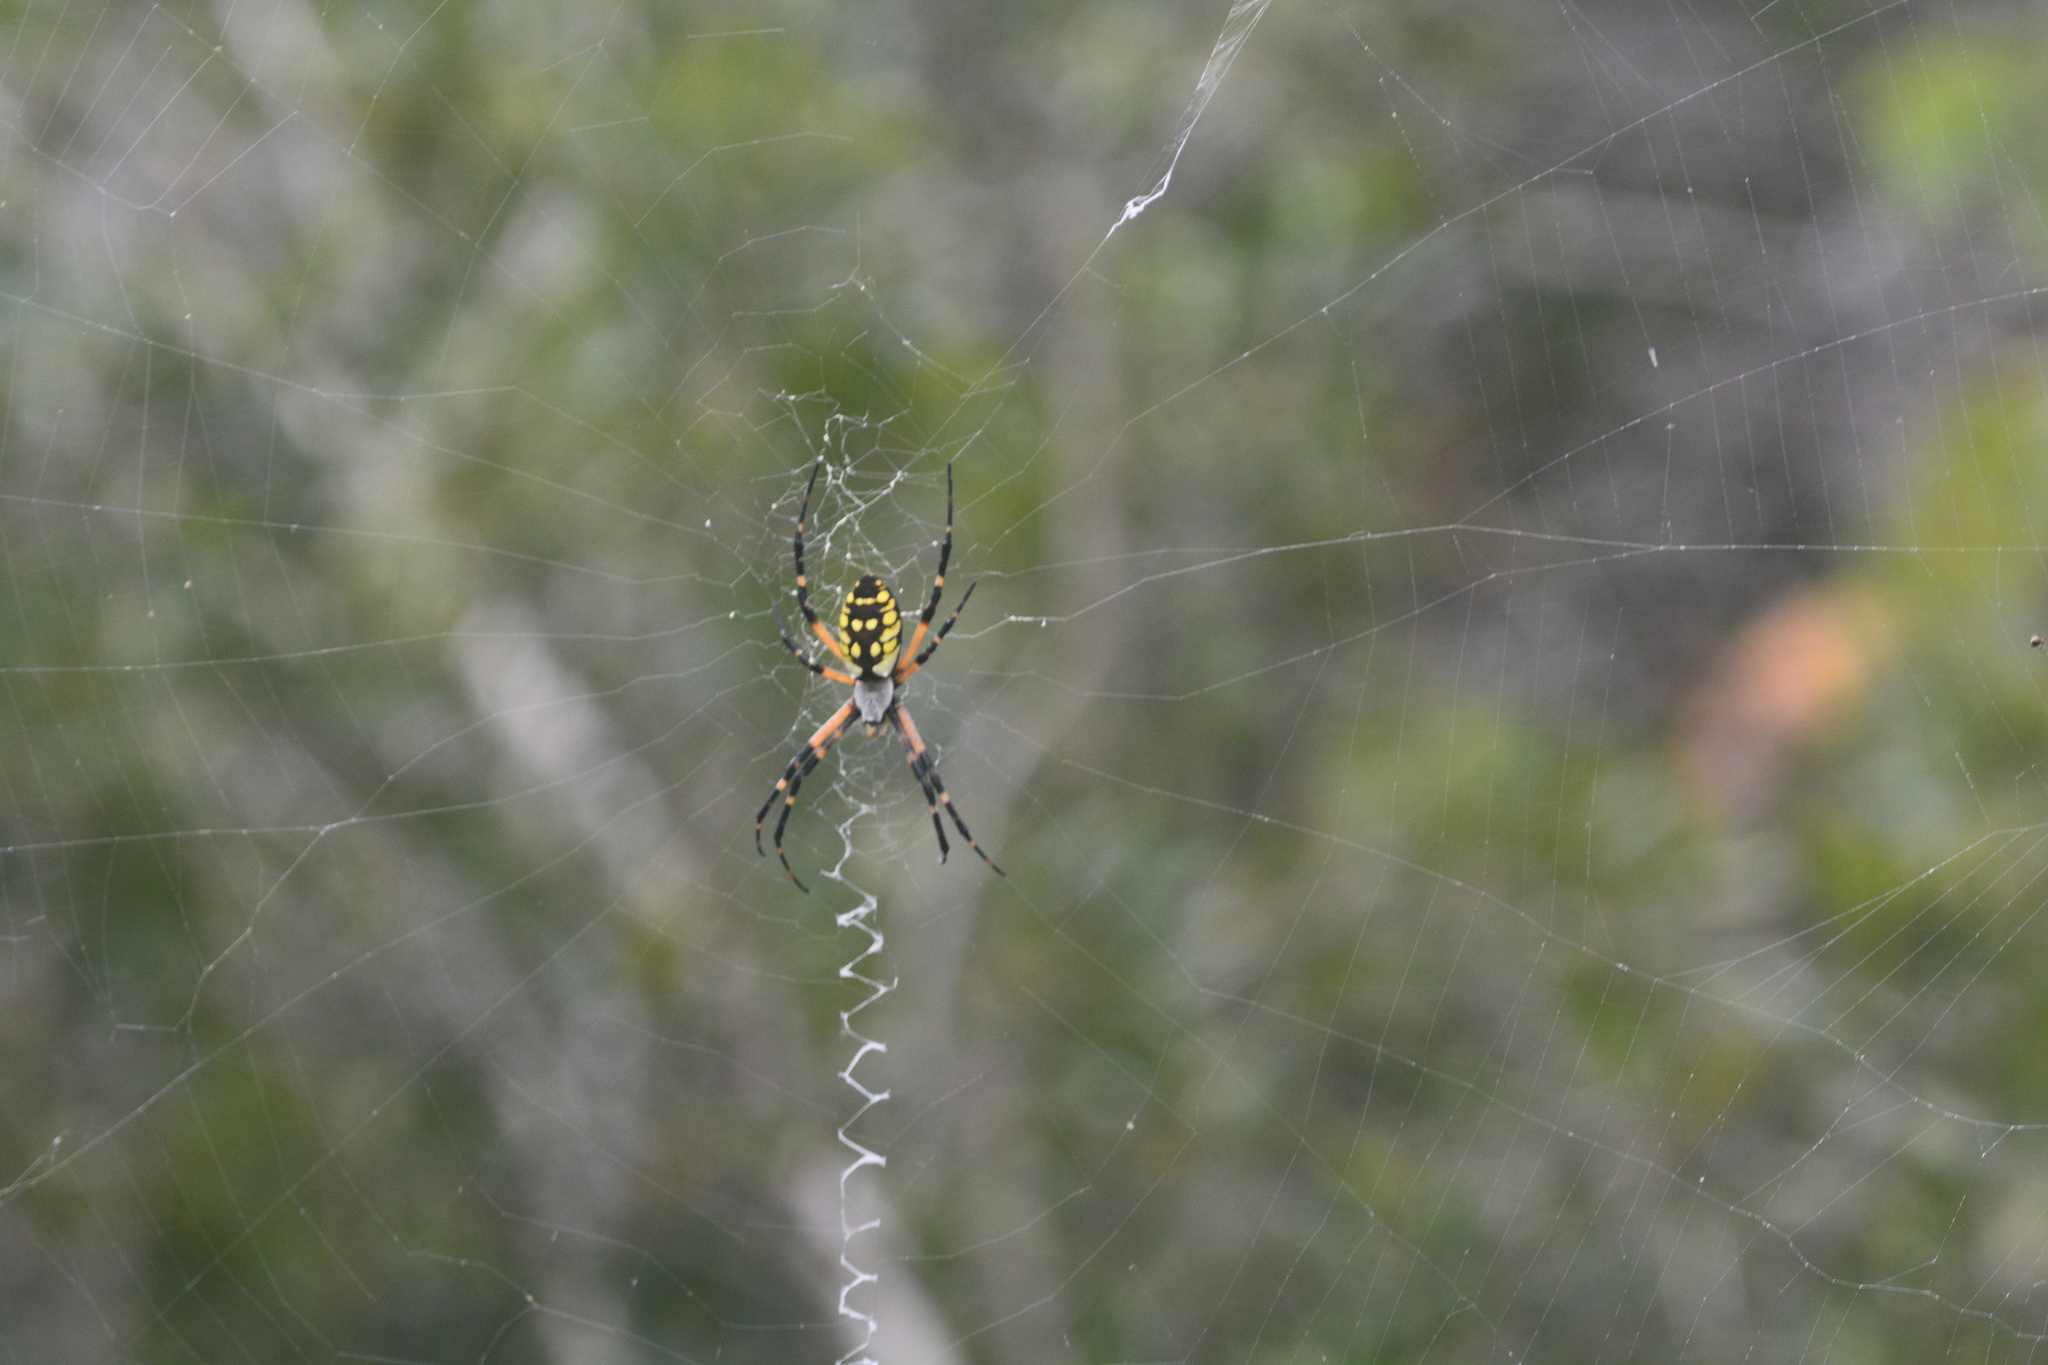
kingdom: Animalia
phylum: Arthropoda
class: Arachnida
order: Araneae
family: Araneidae
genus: Argiope
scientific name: Argiope aurantia
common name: Orb weavers
